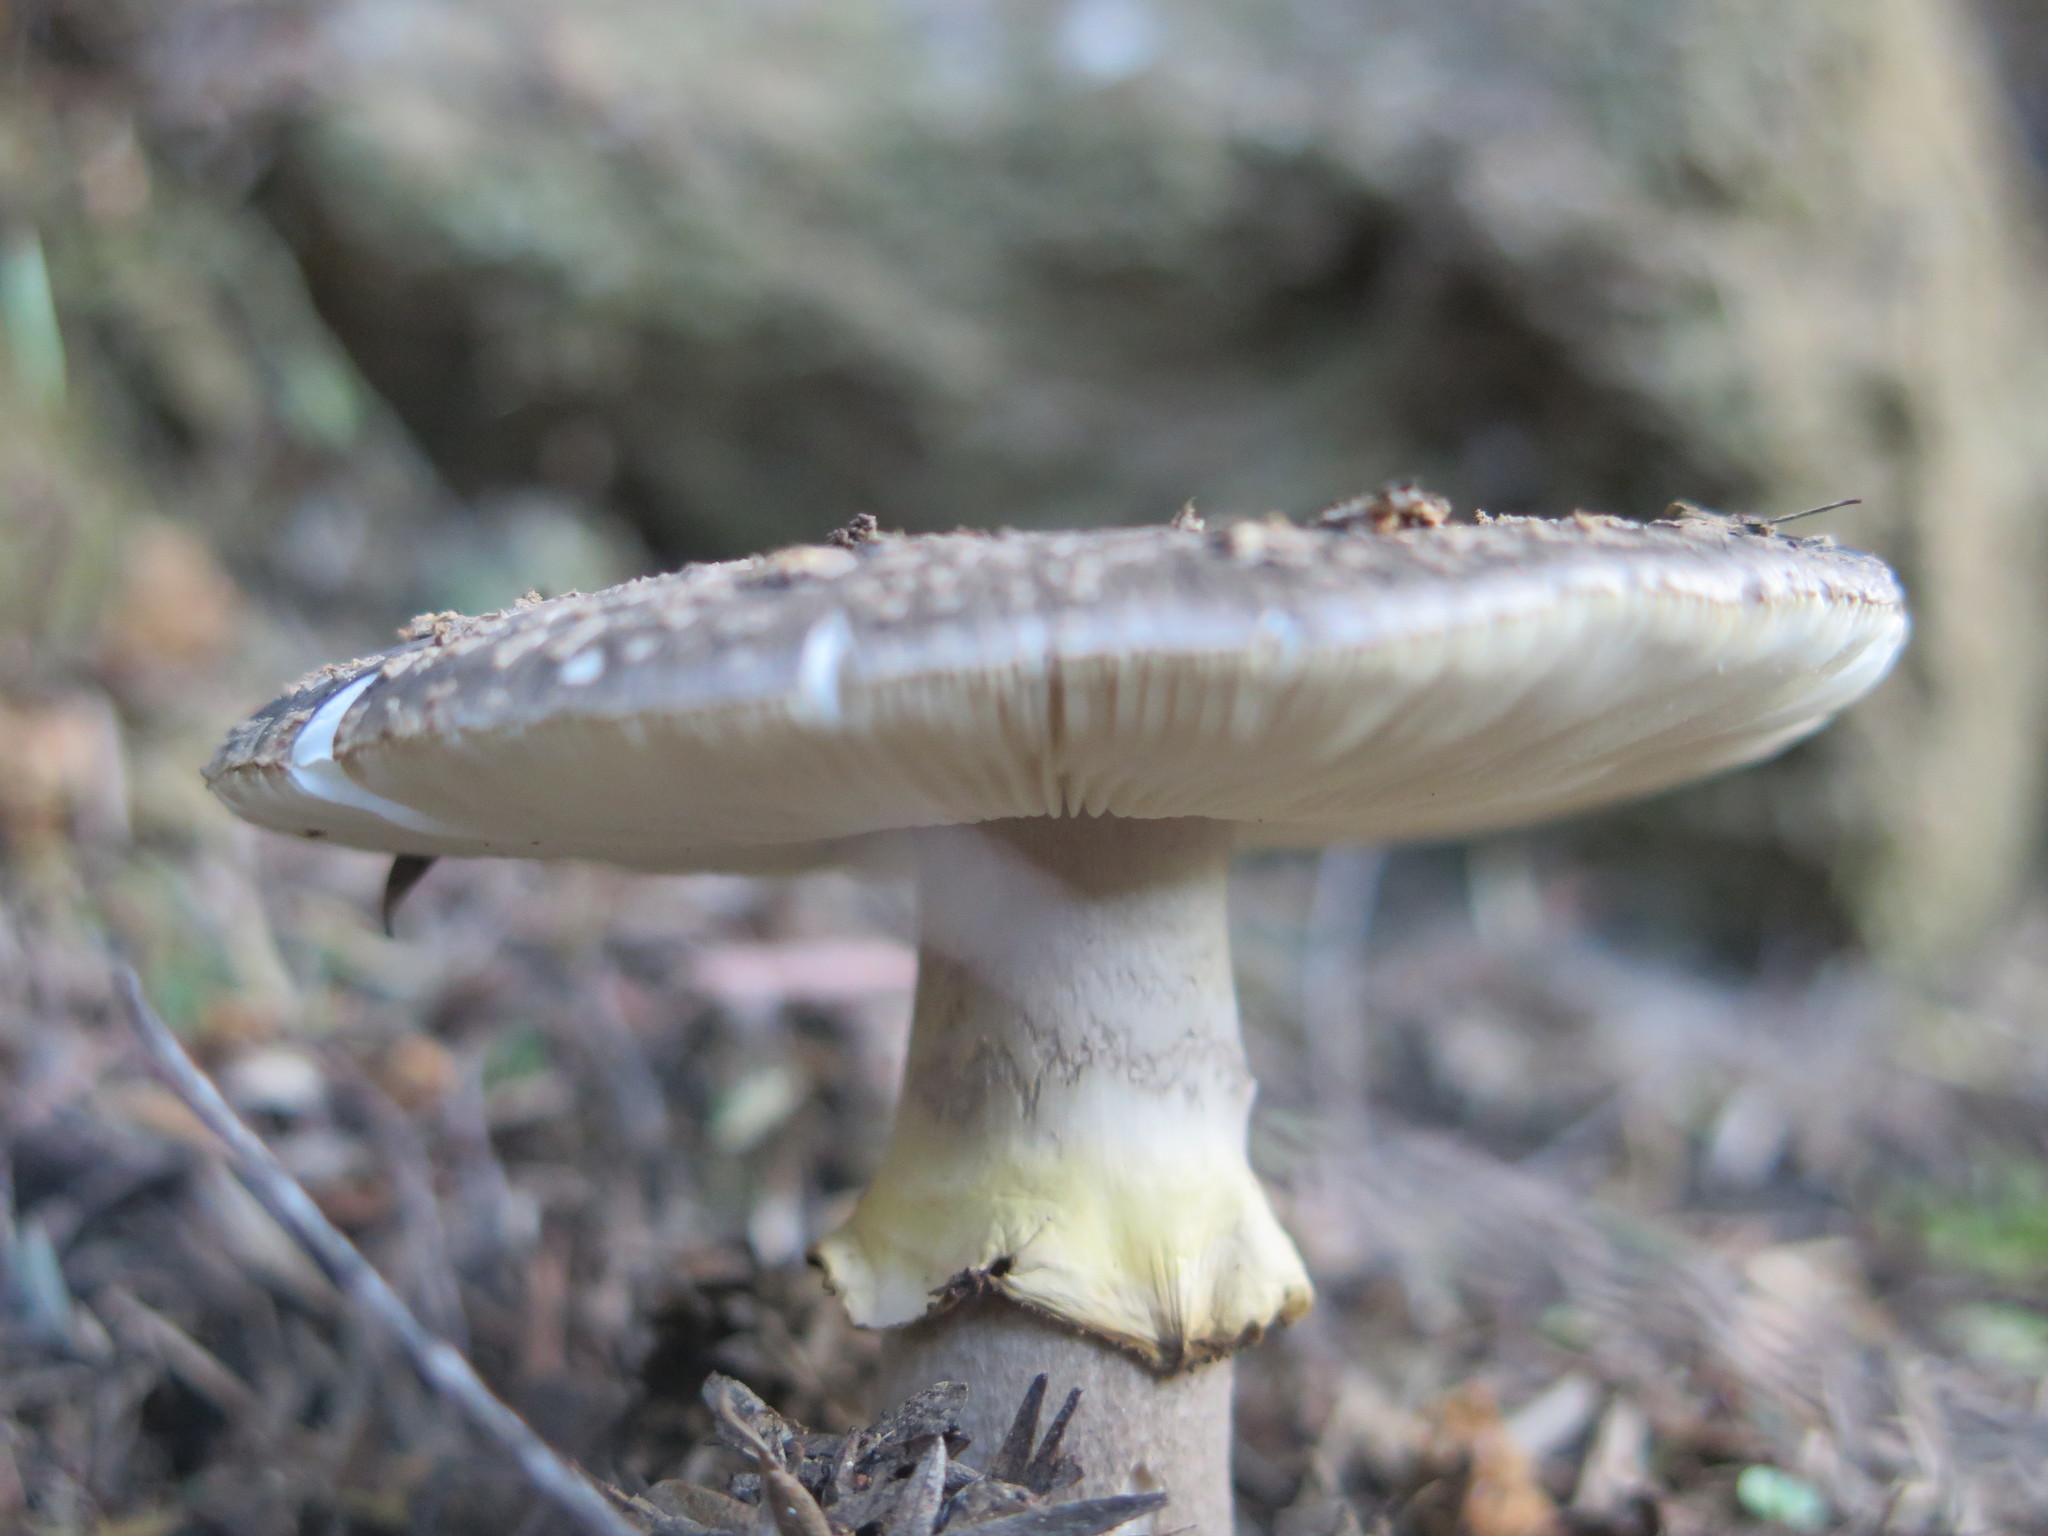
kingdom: Fungi
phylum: Basidiomycota
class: Agaricomycetes
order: Agaricales
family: Amanitaceae
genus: Amanita
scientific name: Amanita nothofagi
